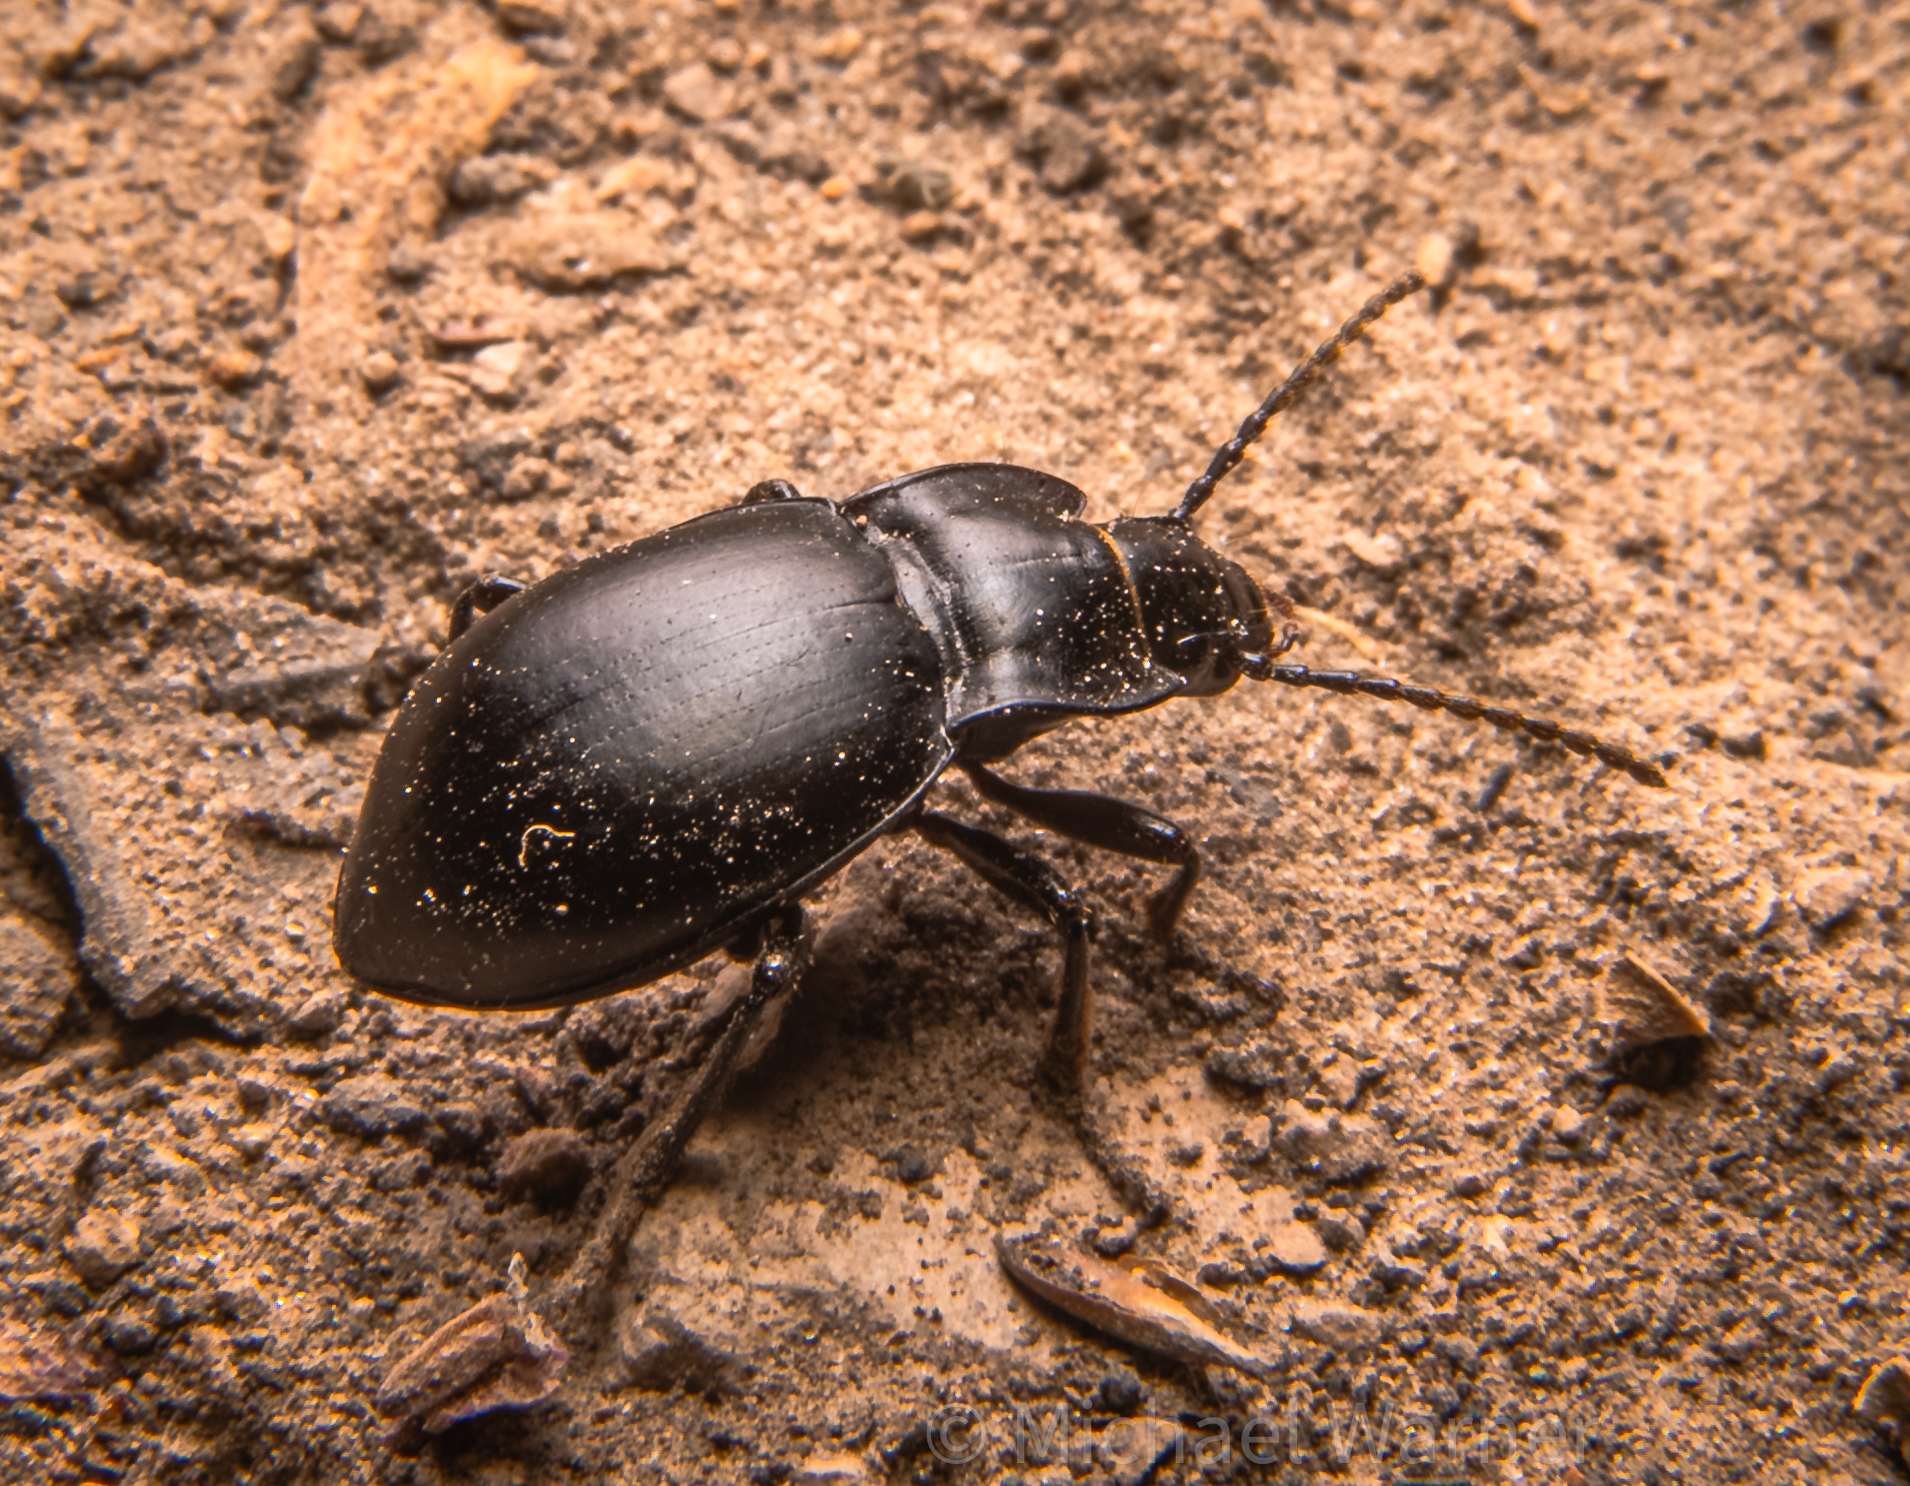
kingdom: Animalia
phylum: Arthropoda
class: Insecta
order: Coleoptera
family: Carabidae
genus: Metrius
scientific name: Metrius contractus
